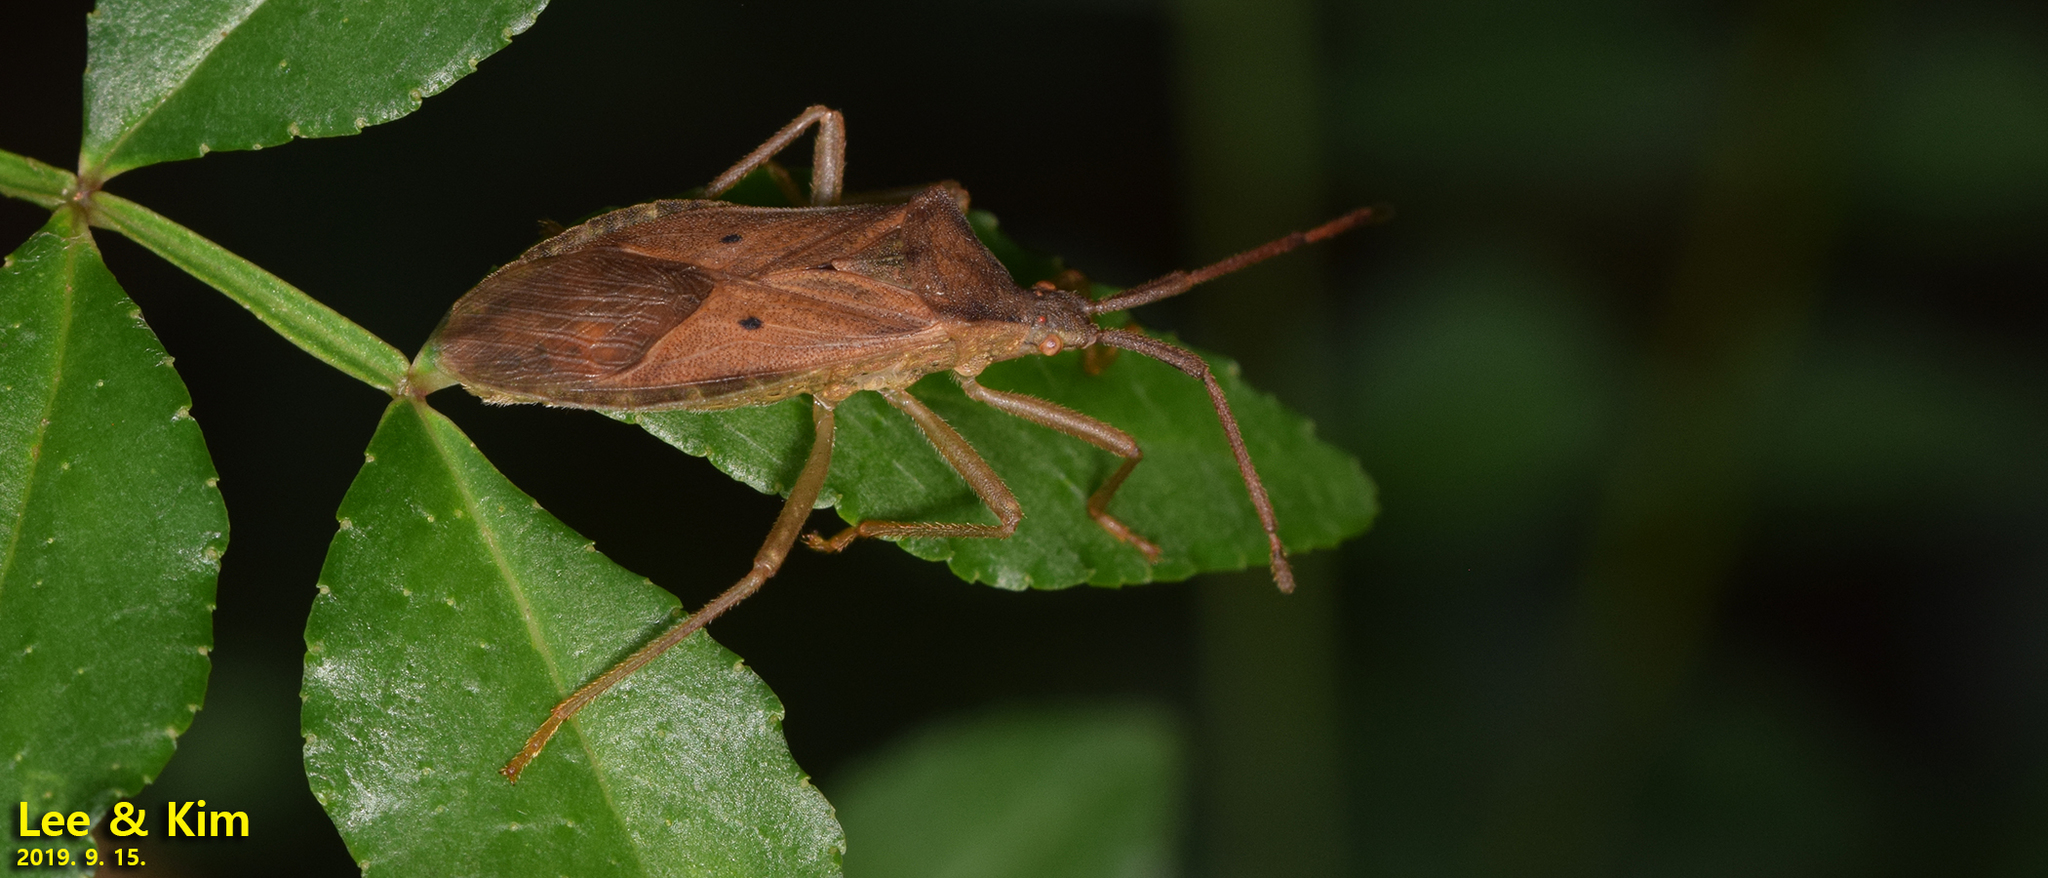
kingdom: Animalia
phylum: Arthropoda
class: Insecta
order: Hemiptera
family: Coreidae
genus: Homoeocerus
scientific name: Homoeocerus unipunctatus
